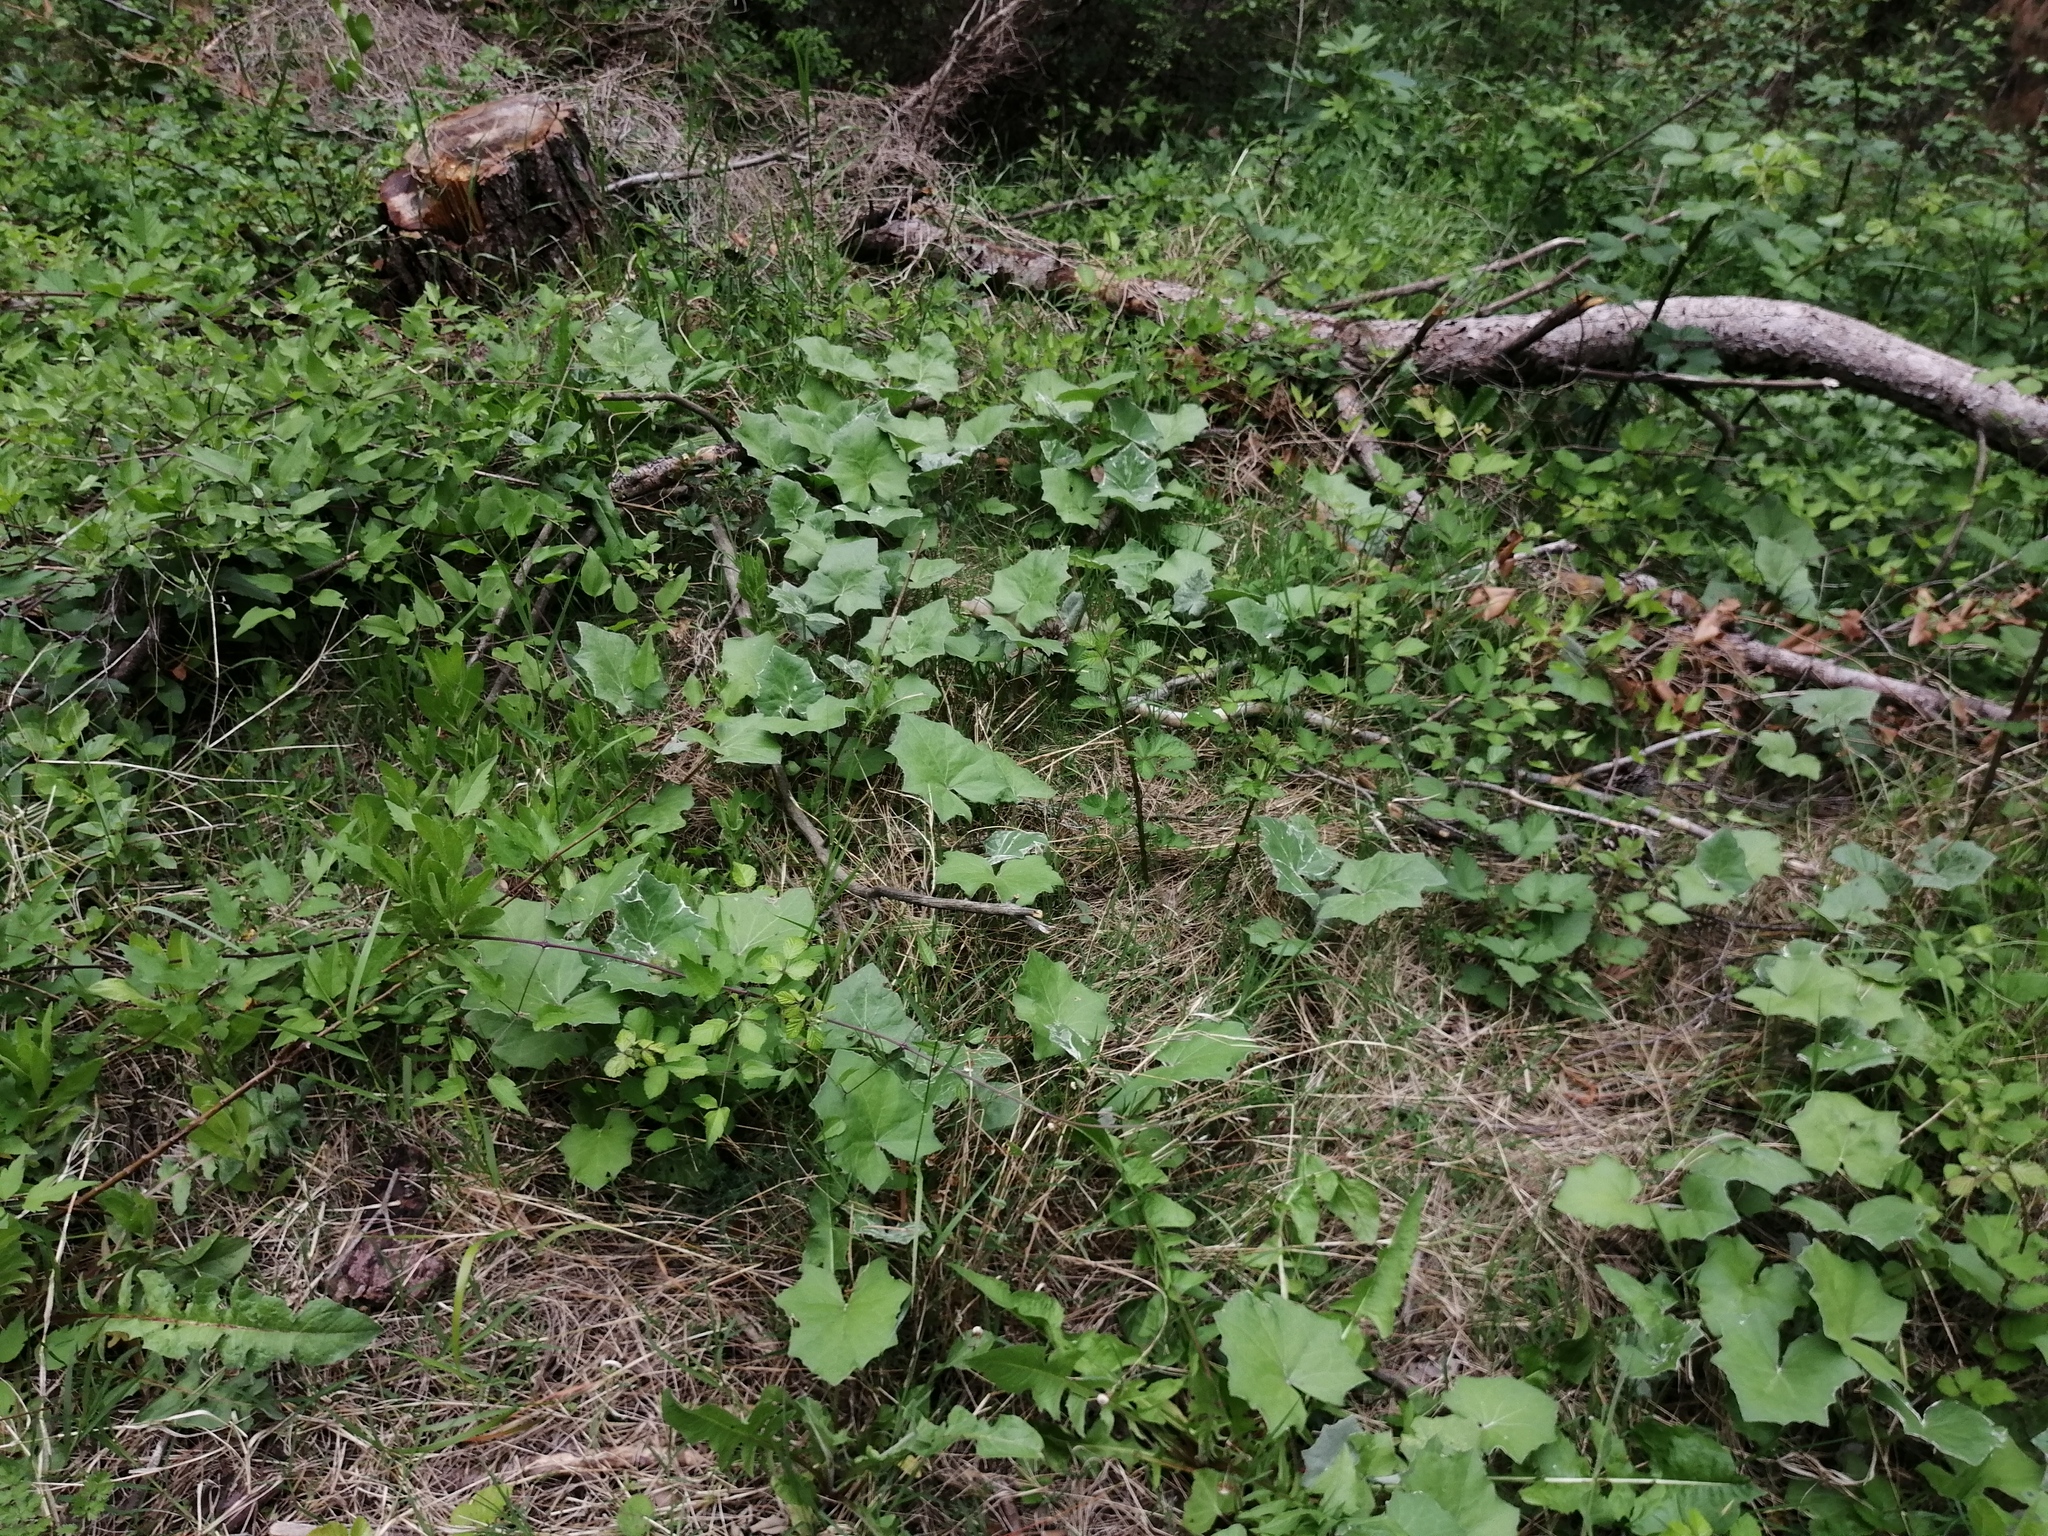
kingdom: Plantae
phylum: Tracheophyta
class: Magnoliopsida
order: Asterales
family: Asteraceae
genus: Tussilago
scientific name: Tussilago farfara
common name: Coltsfoot
